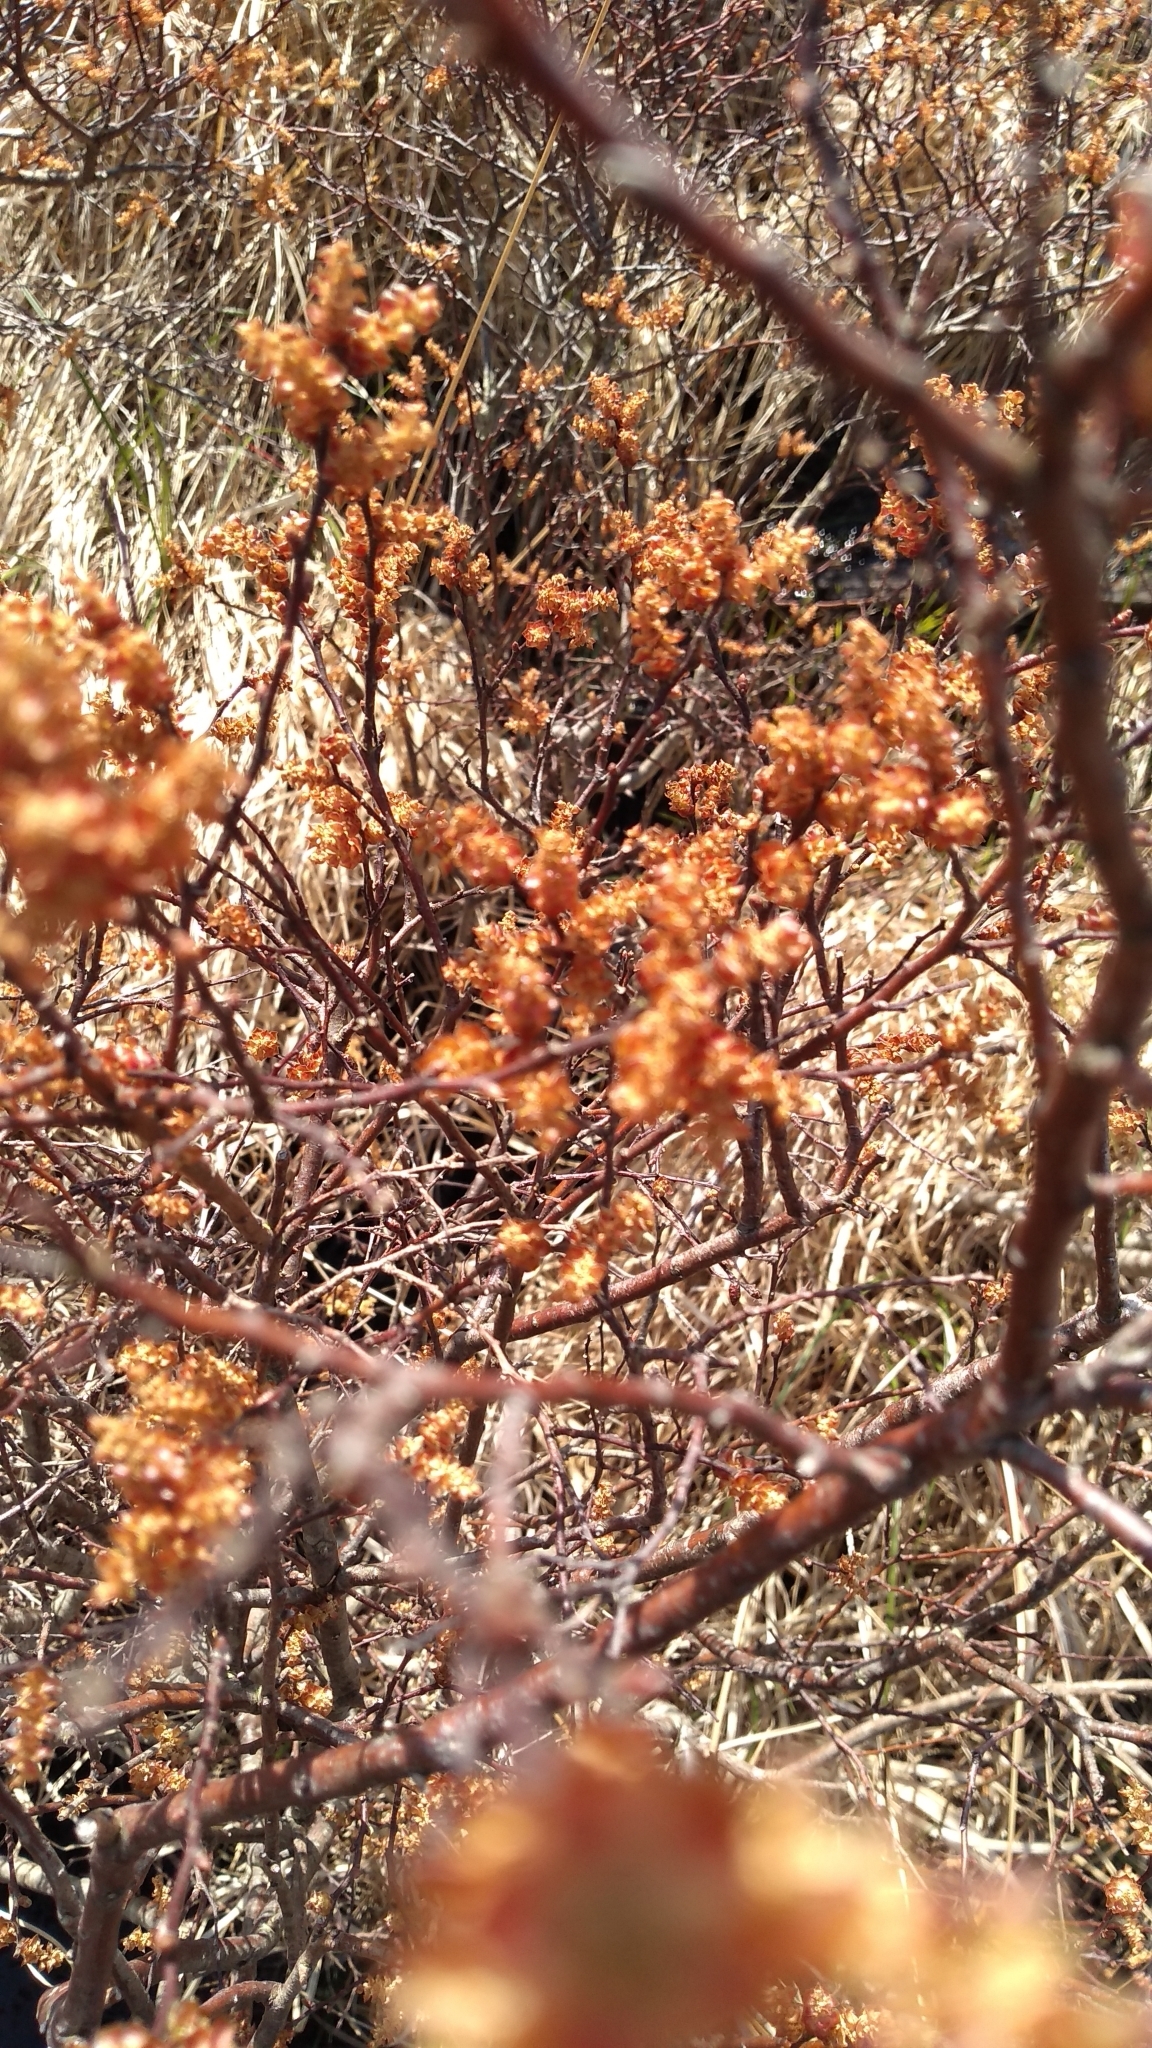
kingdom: Plantae
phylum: Tracheophyta
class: Magnoliopsida
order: Fagales
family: Myricaceae
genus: Myrica
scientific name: Myrica gale
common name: Sweet gale
